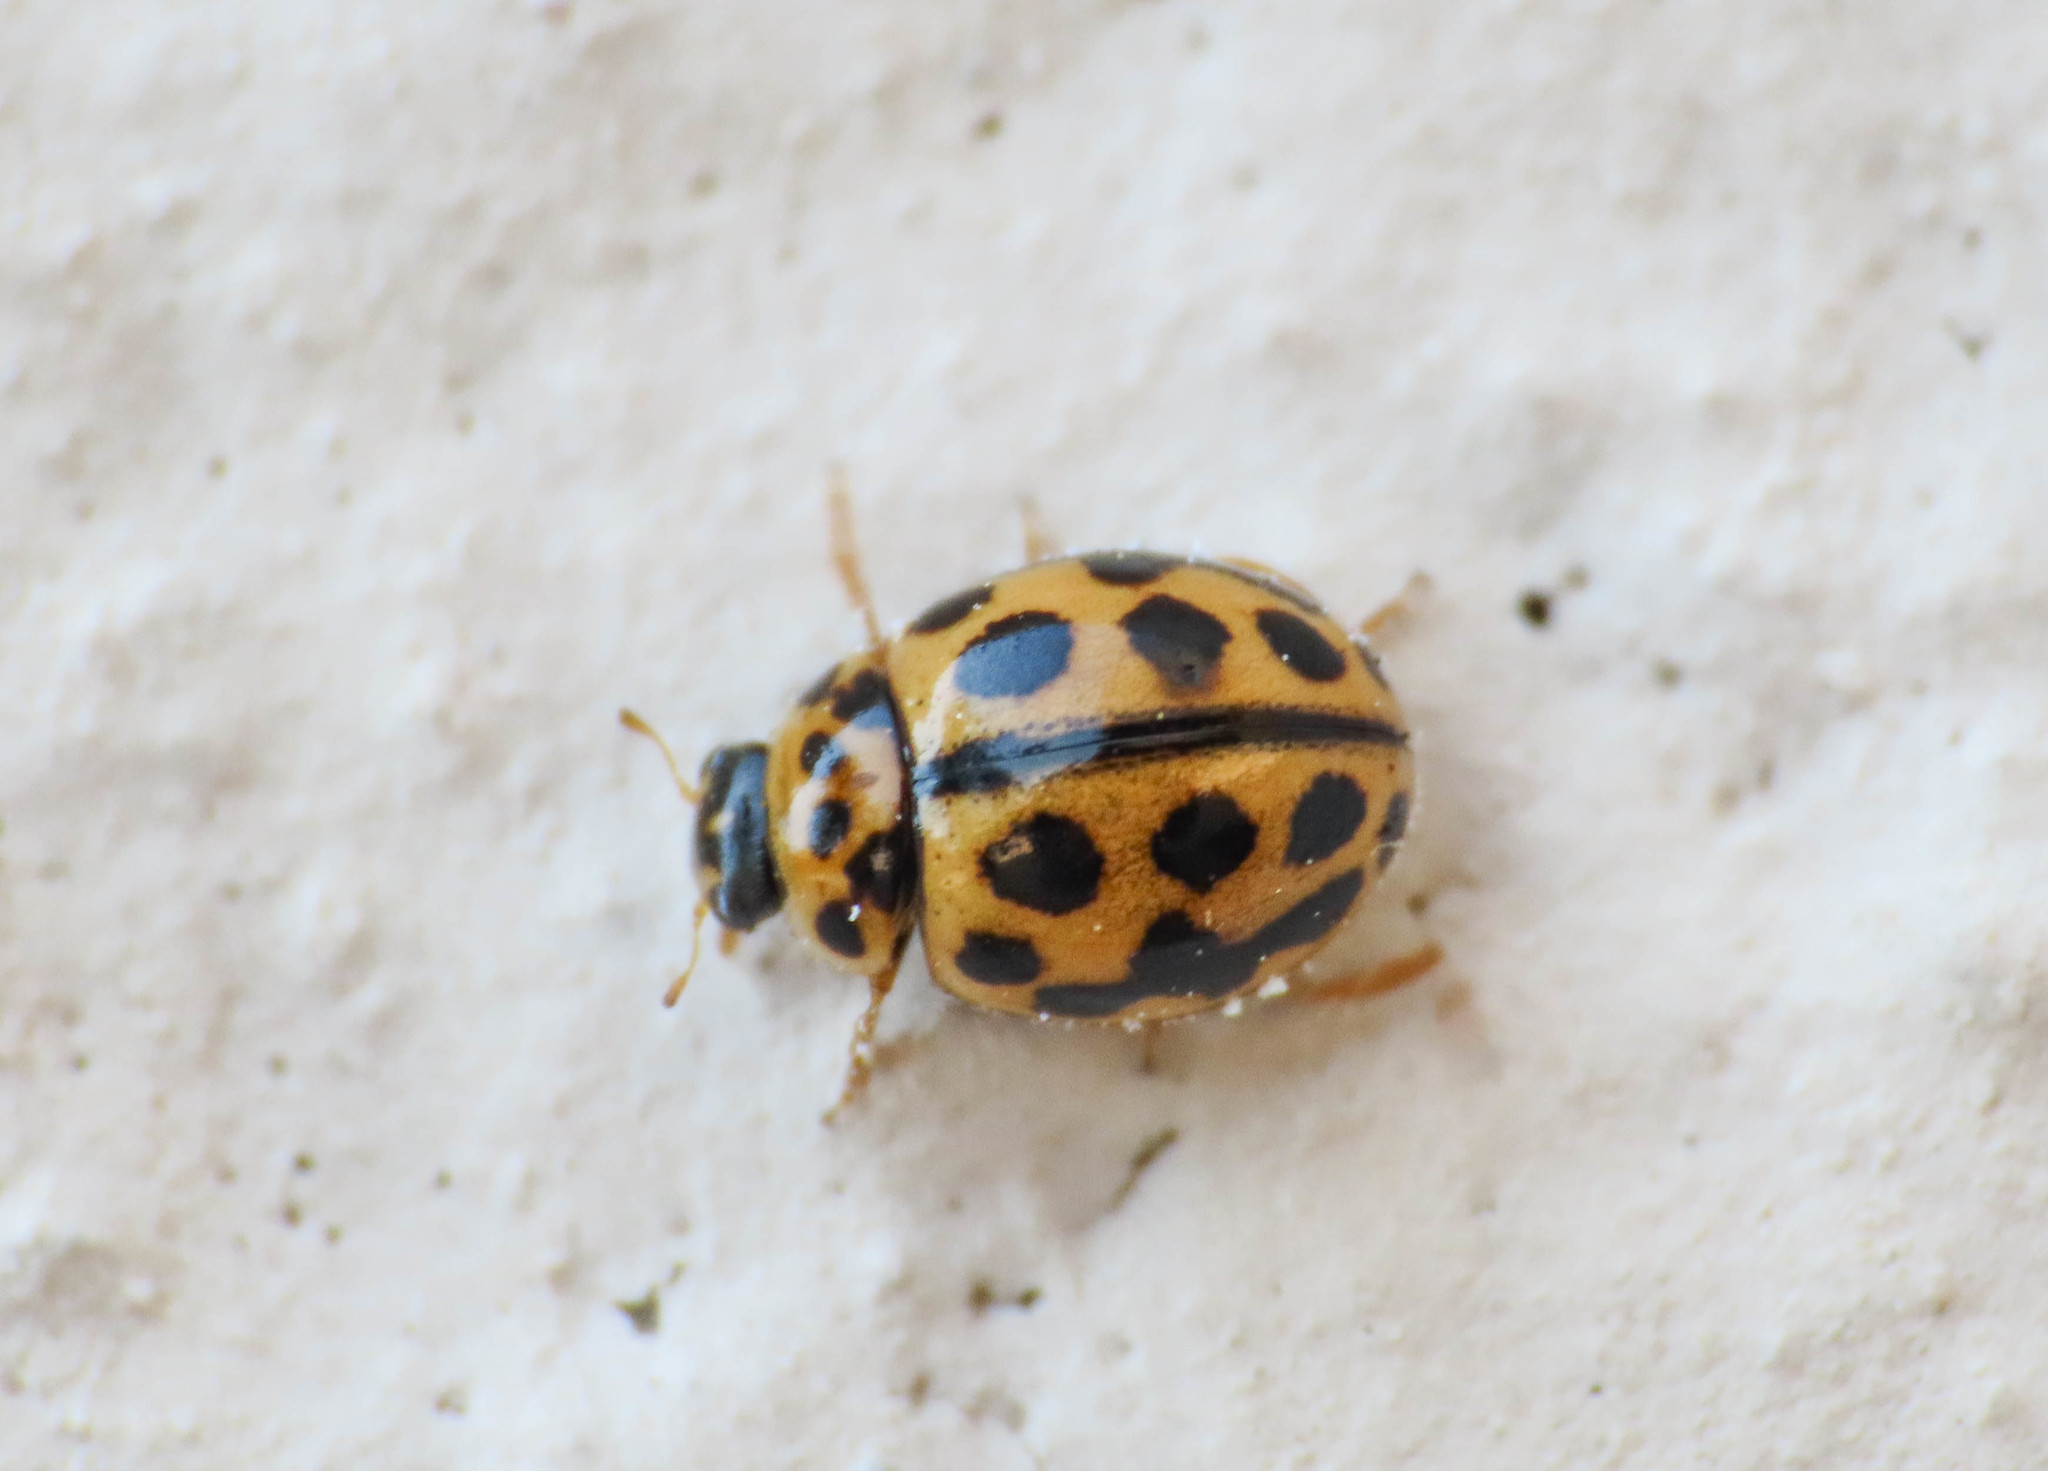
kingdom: Animalia
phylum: Arthropoda
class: Insecta
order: Coleoptera
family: Coccinellidae
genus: Tytthaspis
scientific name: Tytthaspis sedecimpunctata
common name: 16-spot ladybird
